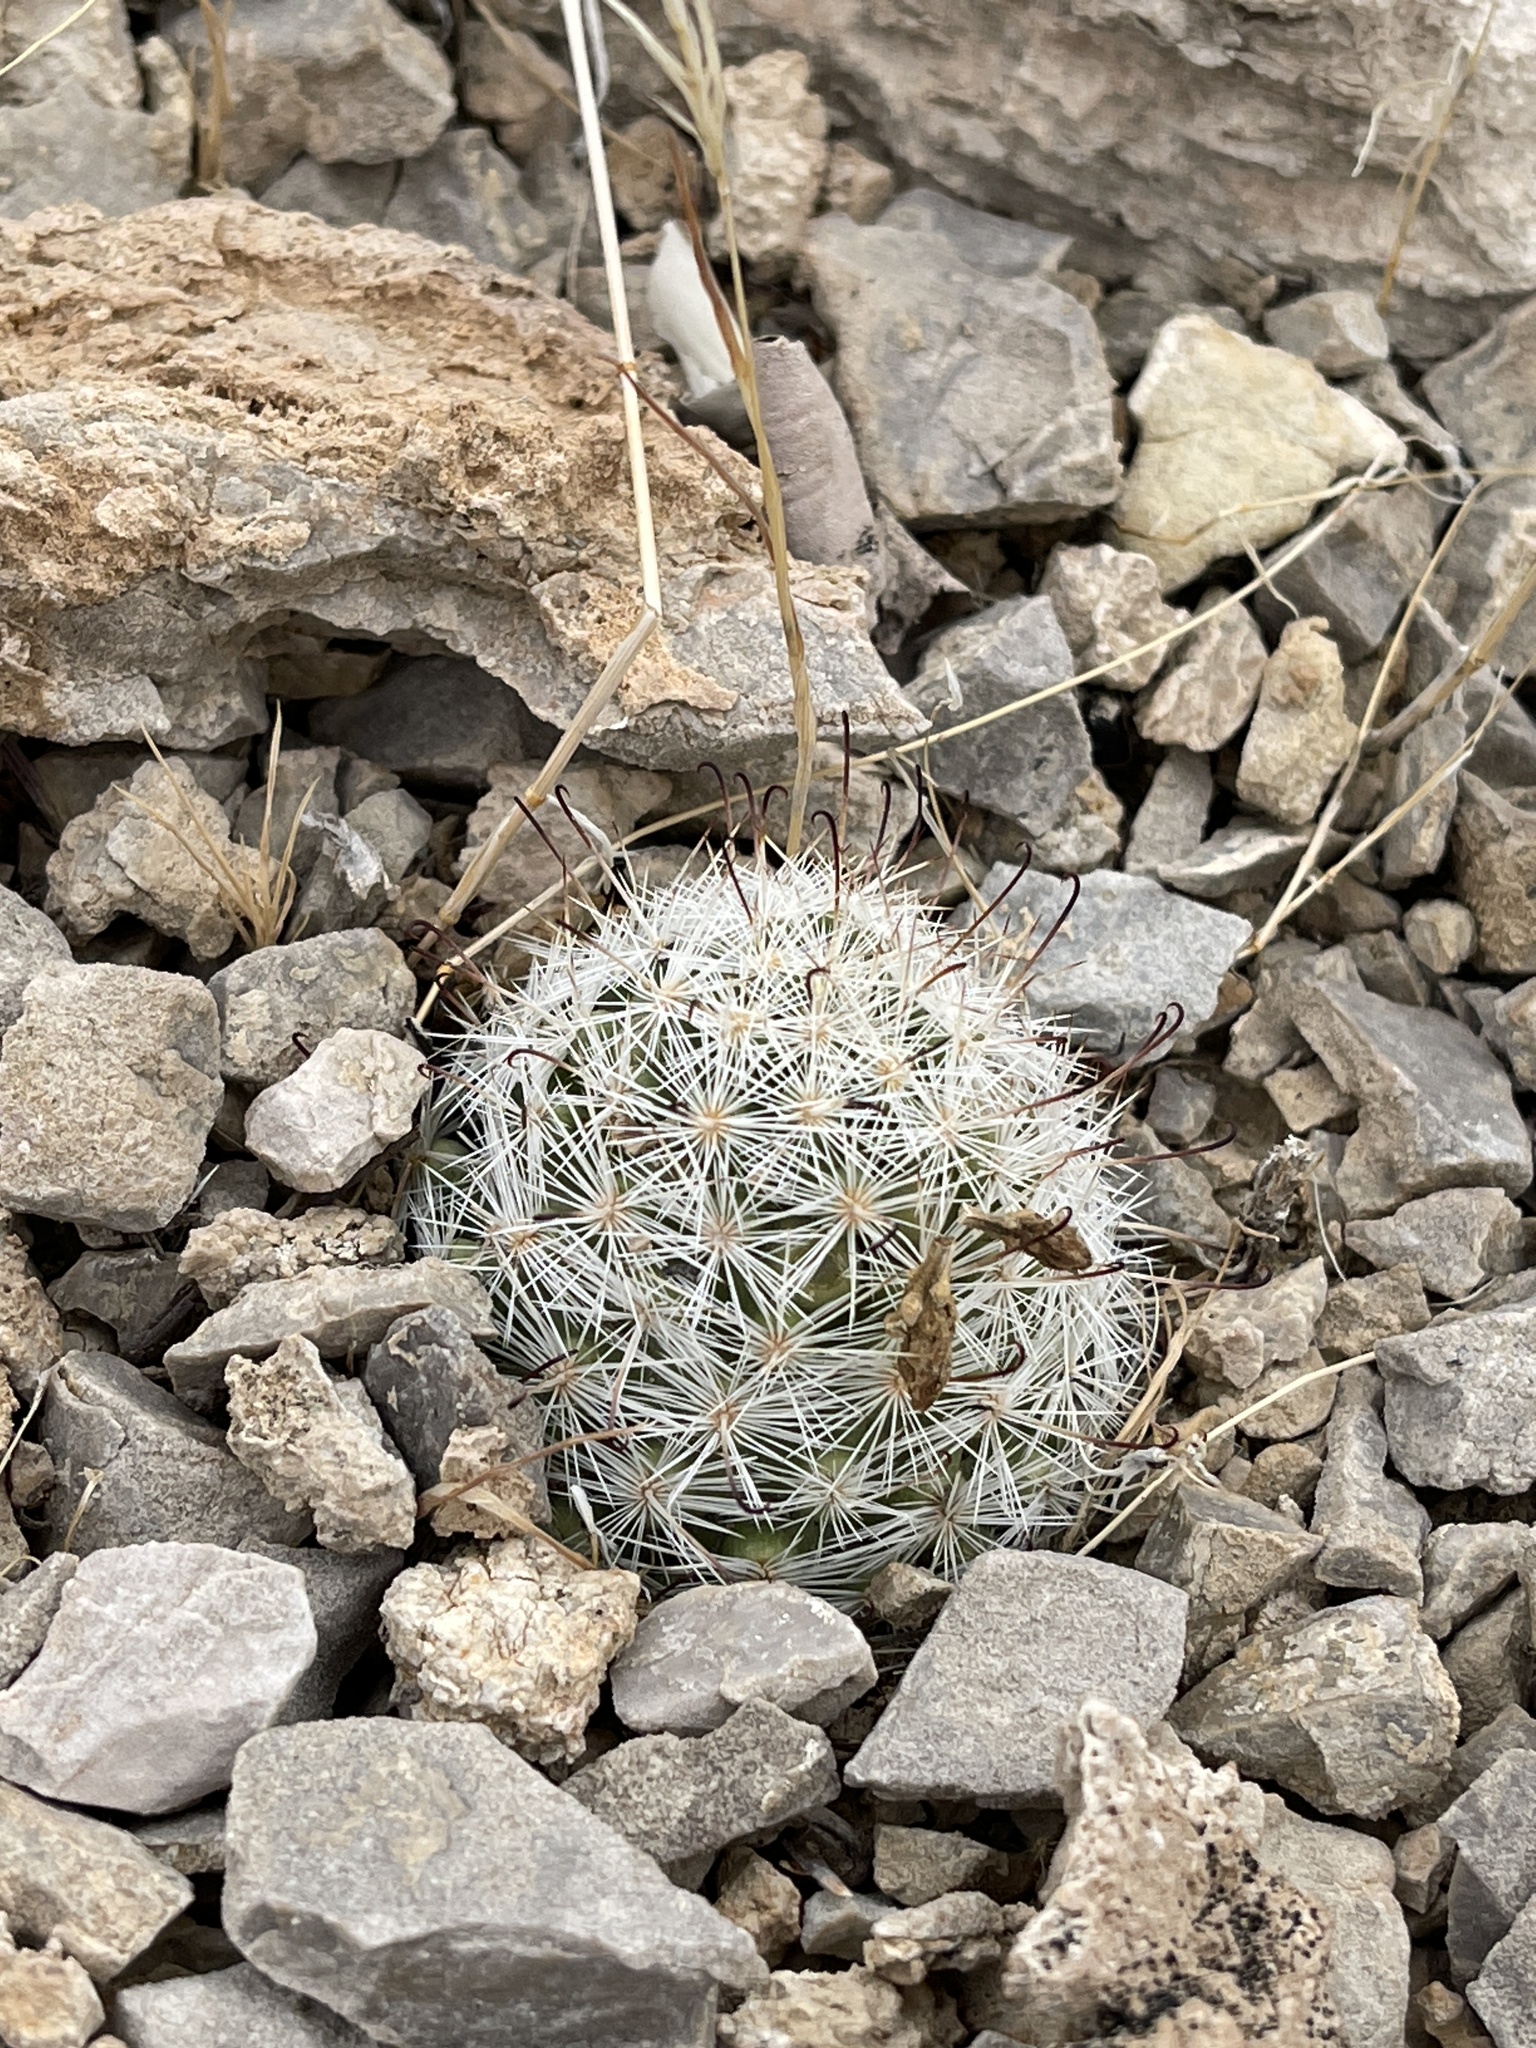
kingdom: Plantae
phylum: Tracheophyta
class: Magnoliopsida
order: Caryophyllales
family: Cactaceae
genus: Cochemiea
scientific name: Cochemiea tetrancistra
